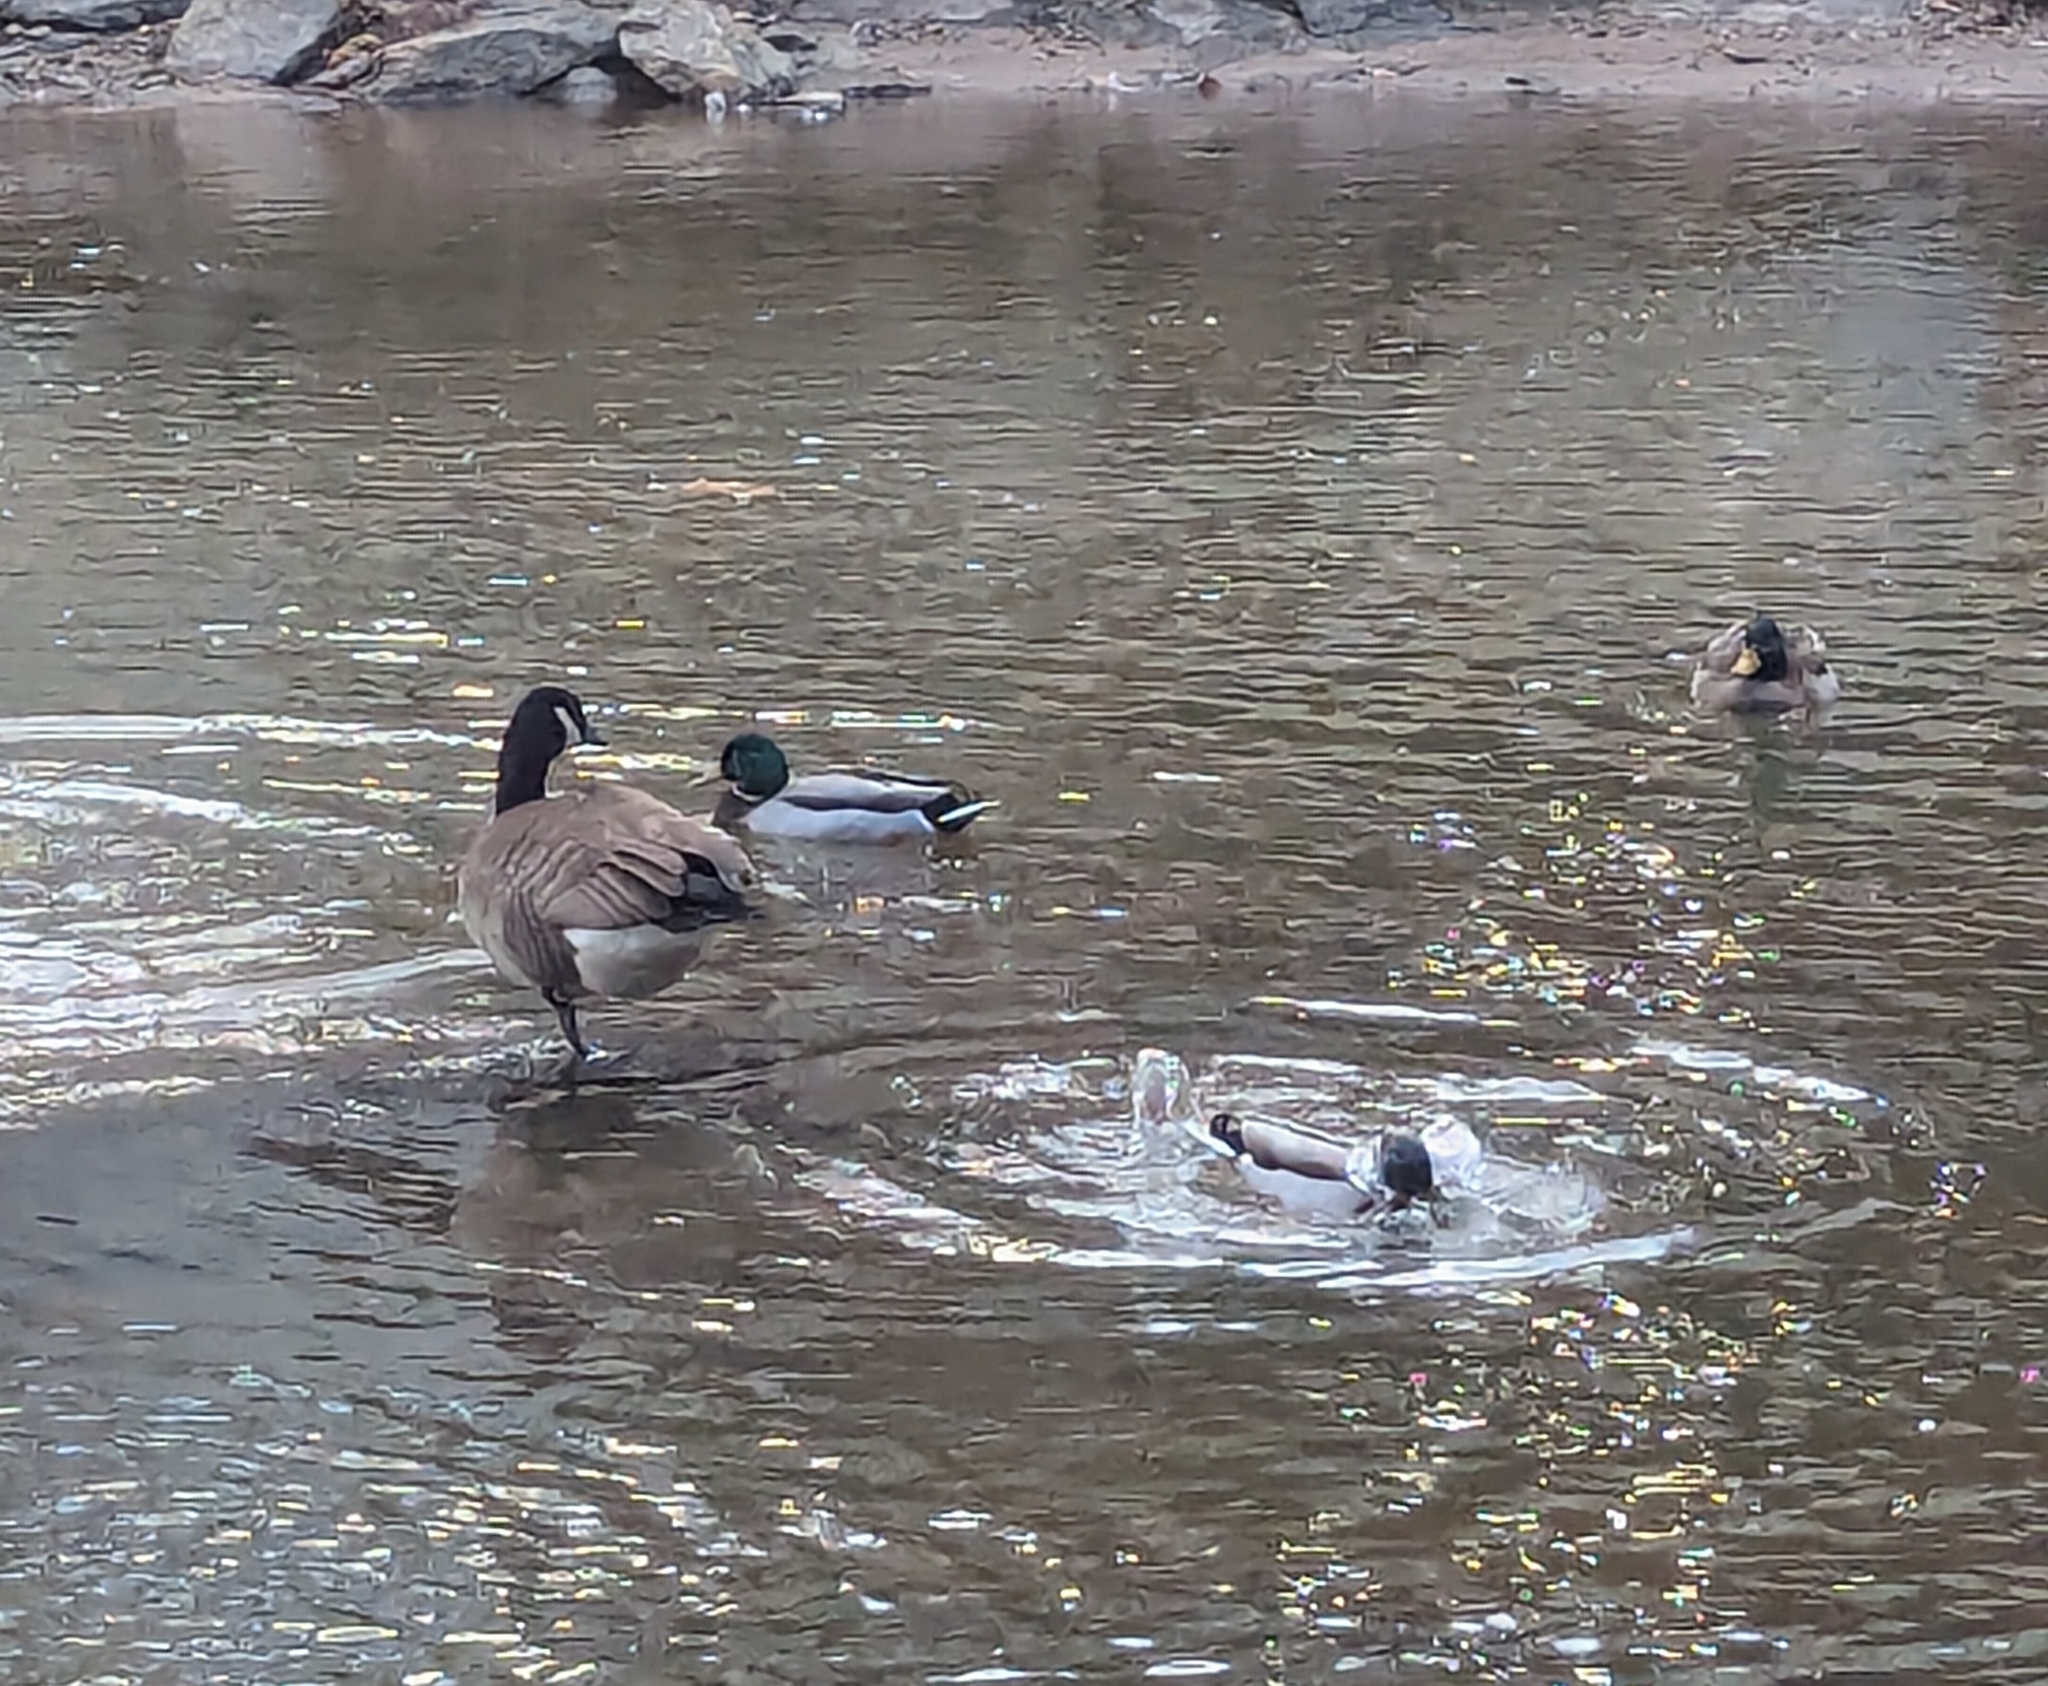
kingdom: Animalia
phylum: Chordata
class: Aves
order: Anseriformes
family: Anatidae
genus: Branta
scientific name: Branta canadensis
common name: Canada goose
